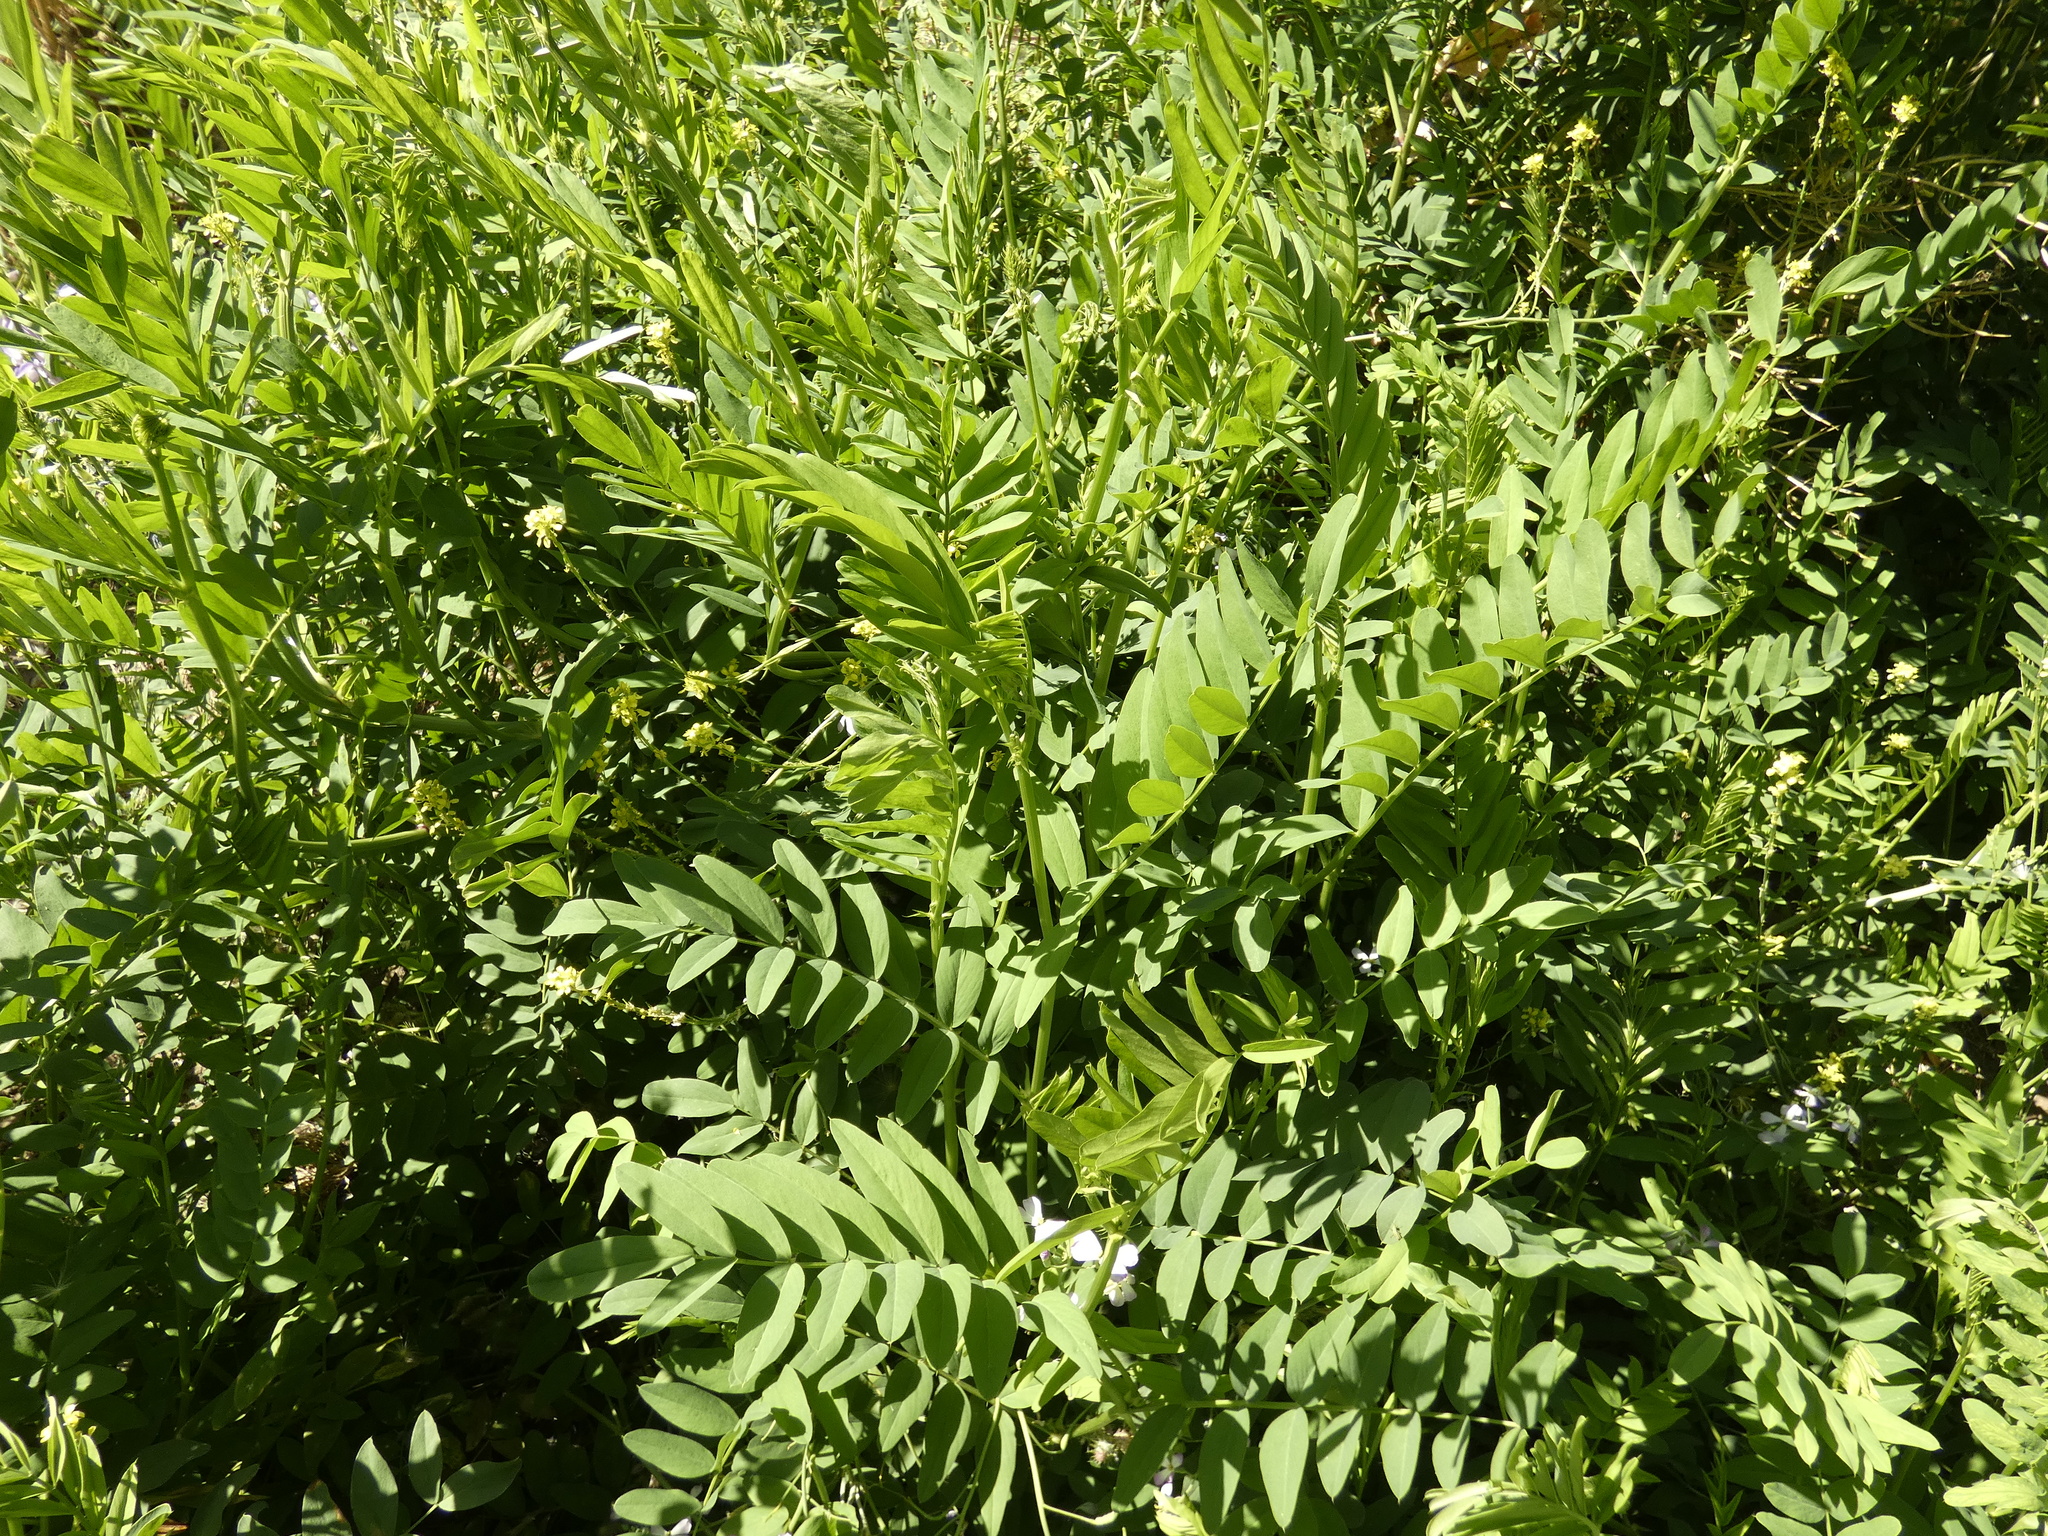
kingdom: Plantae
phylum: Tracheophyta
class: Magnoliopsida
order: Fabales
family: Fabaceae
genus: Galega
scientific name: Galega officinalis
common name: Goat's-rue
